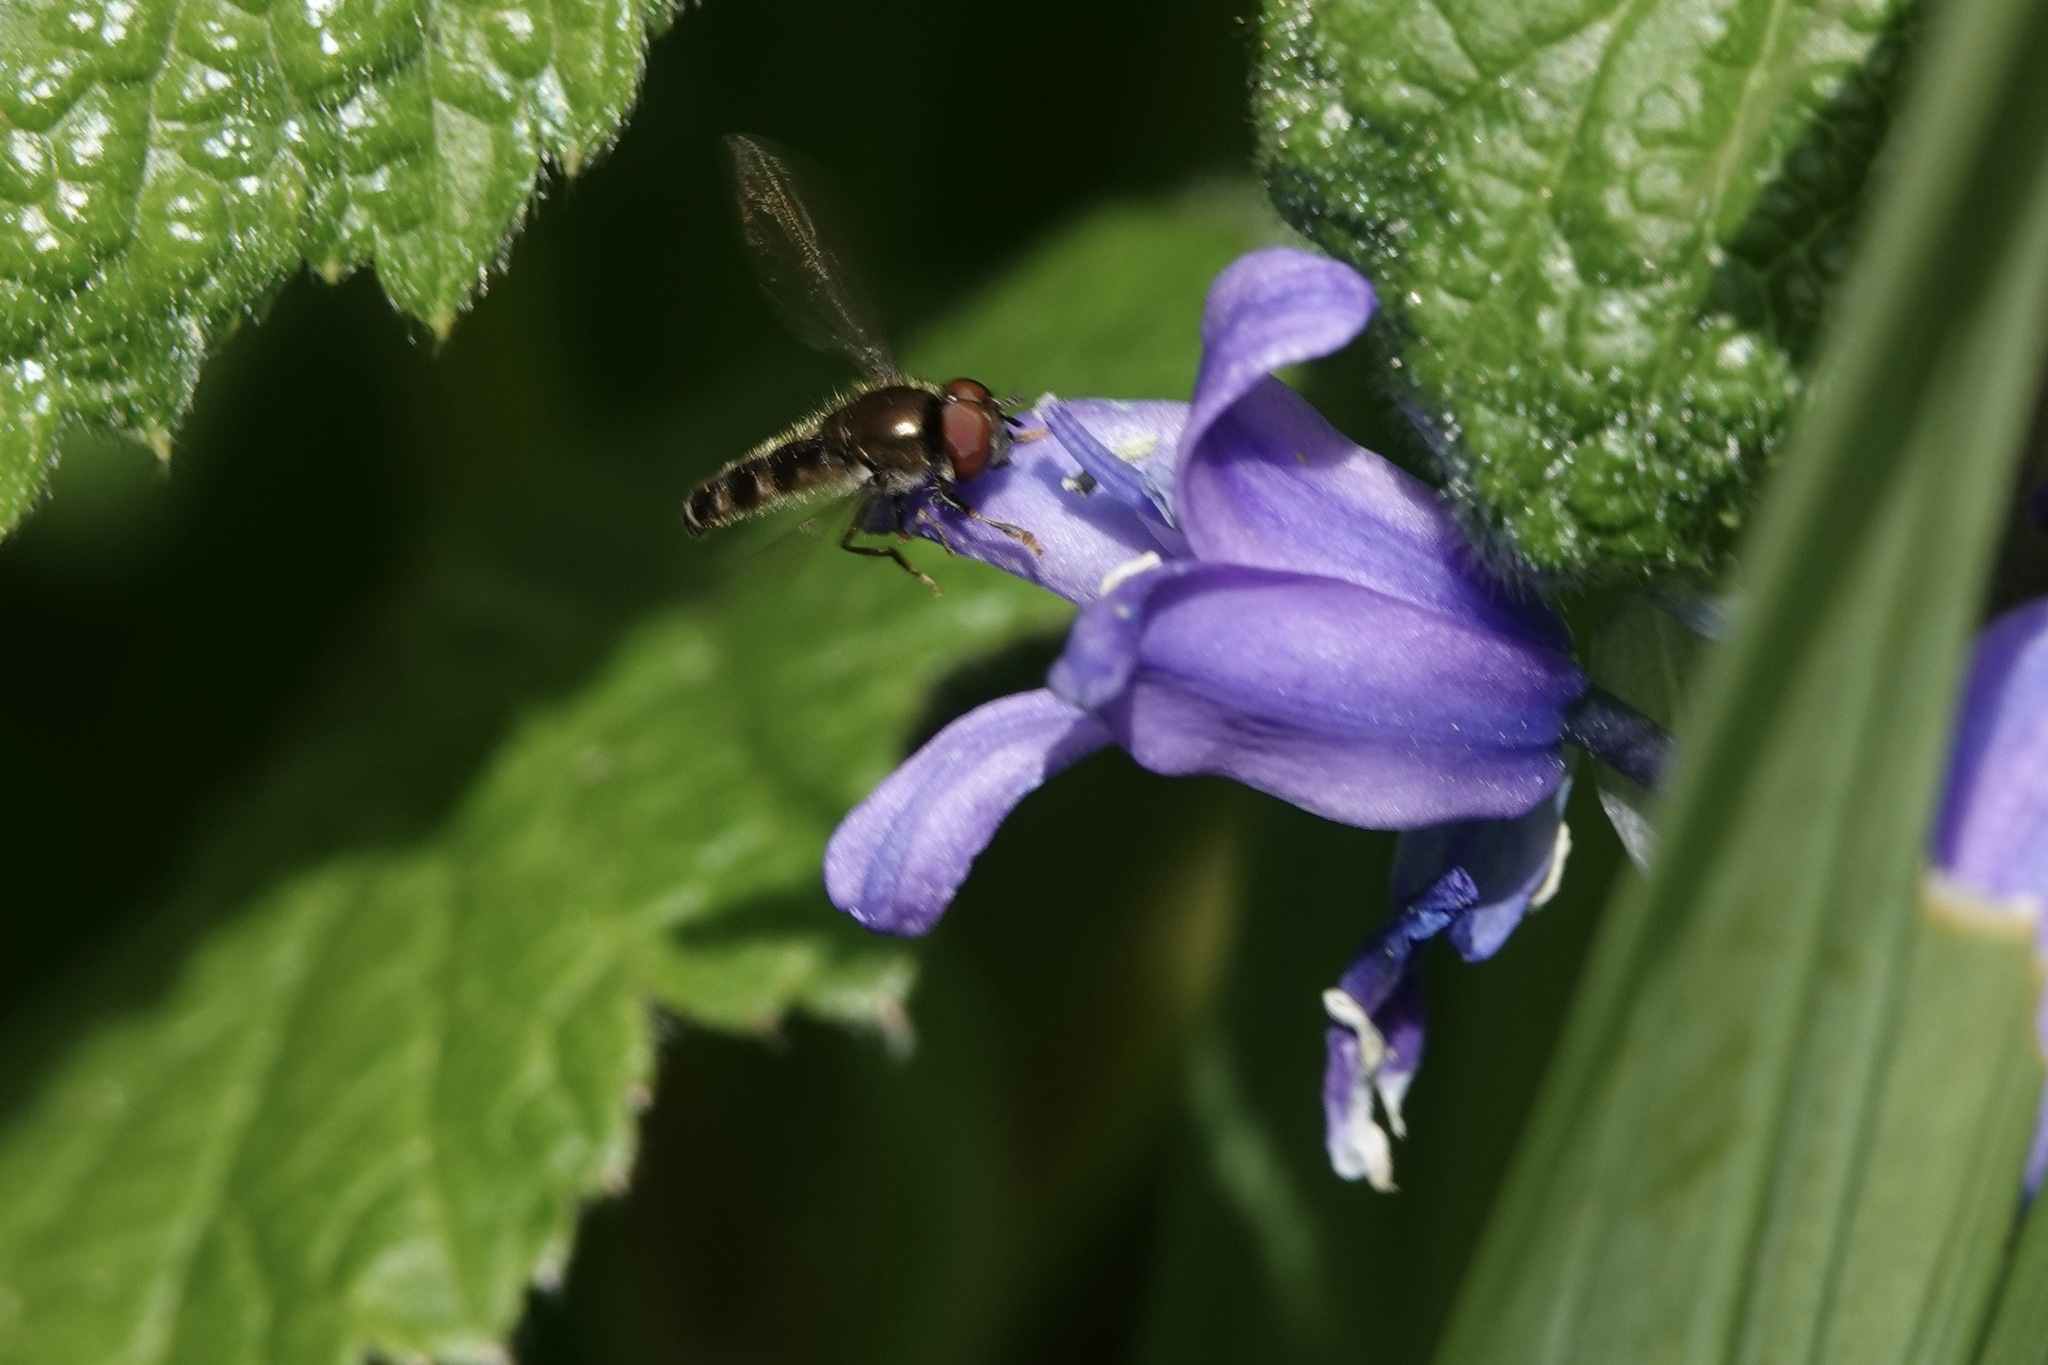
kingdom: Animalia
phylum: Arthropoda
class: Insecta
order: Diptera
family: Syrphidae
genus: Platycheirus
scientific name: Platycheirus scutatus
